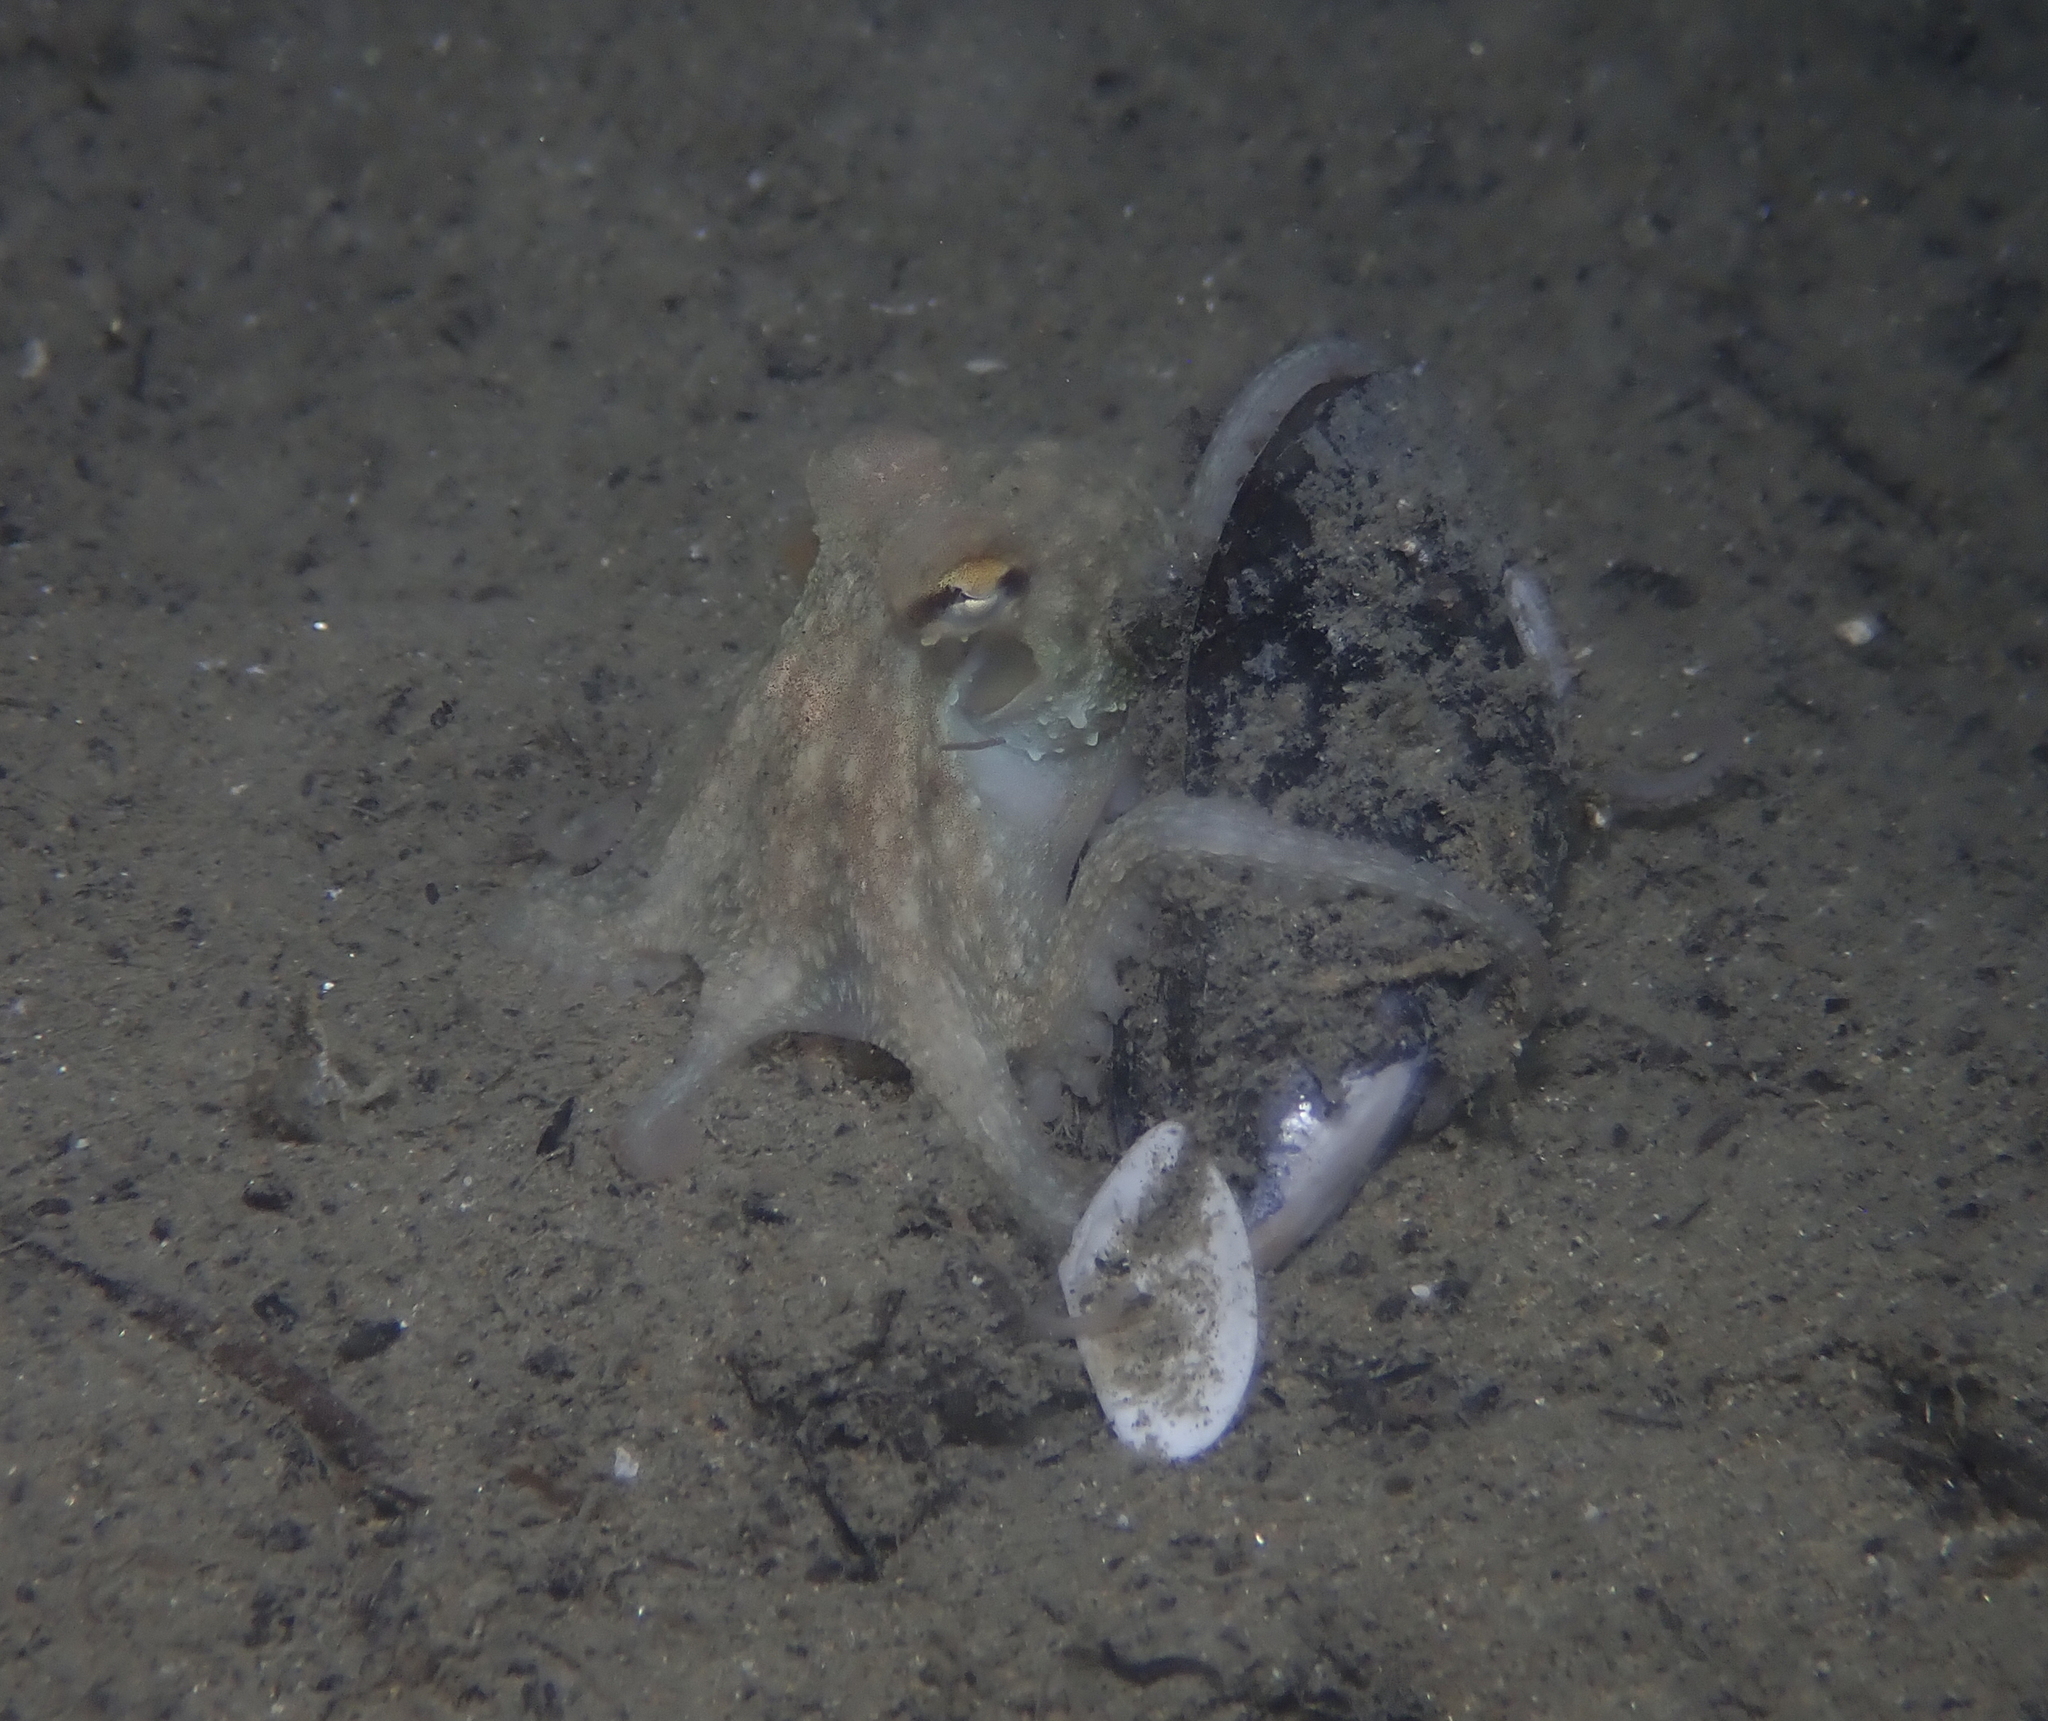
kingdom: Animalia
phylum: Mollusca
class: Cephalopoda
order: Octopoda
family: Octopodidae
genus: Octopus
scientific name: Octopus vulgaris
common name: Common octopus
